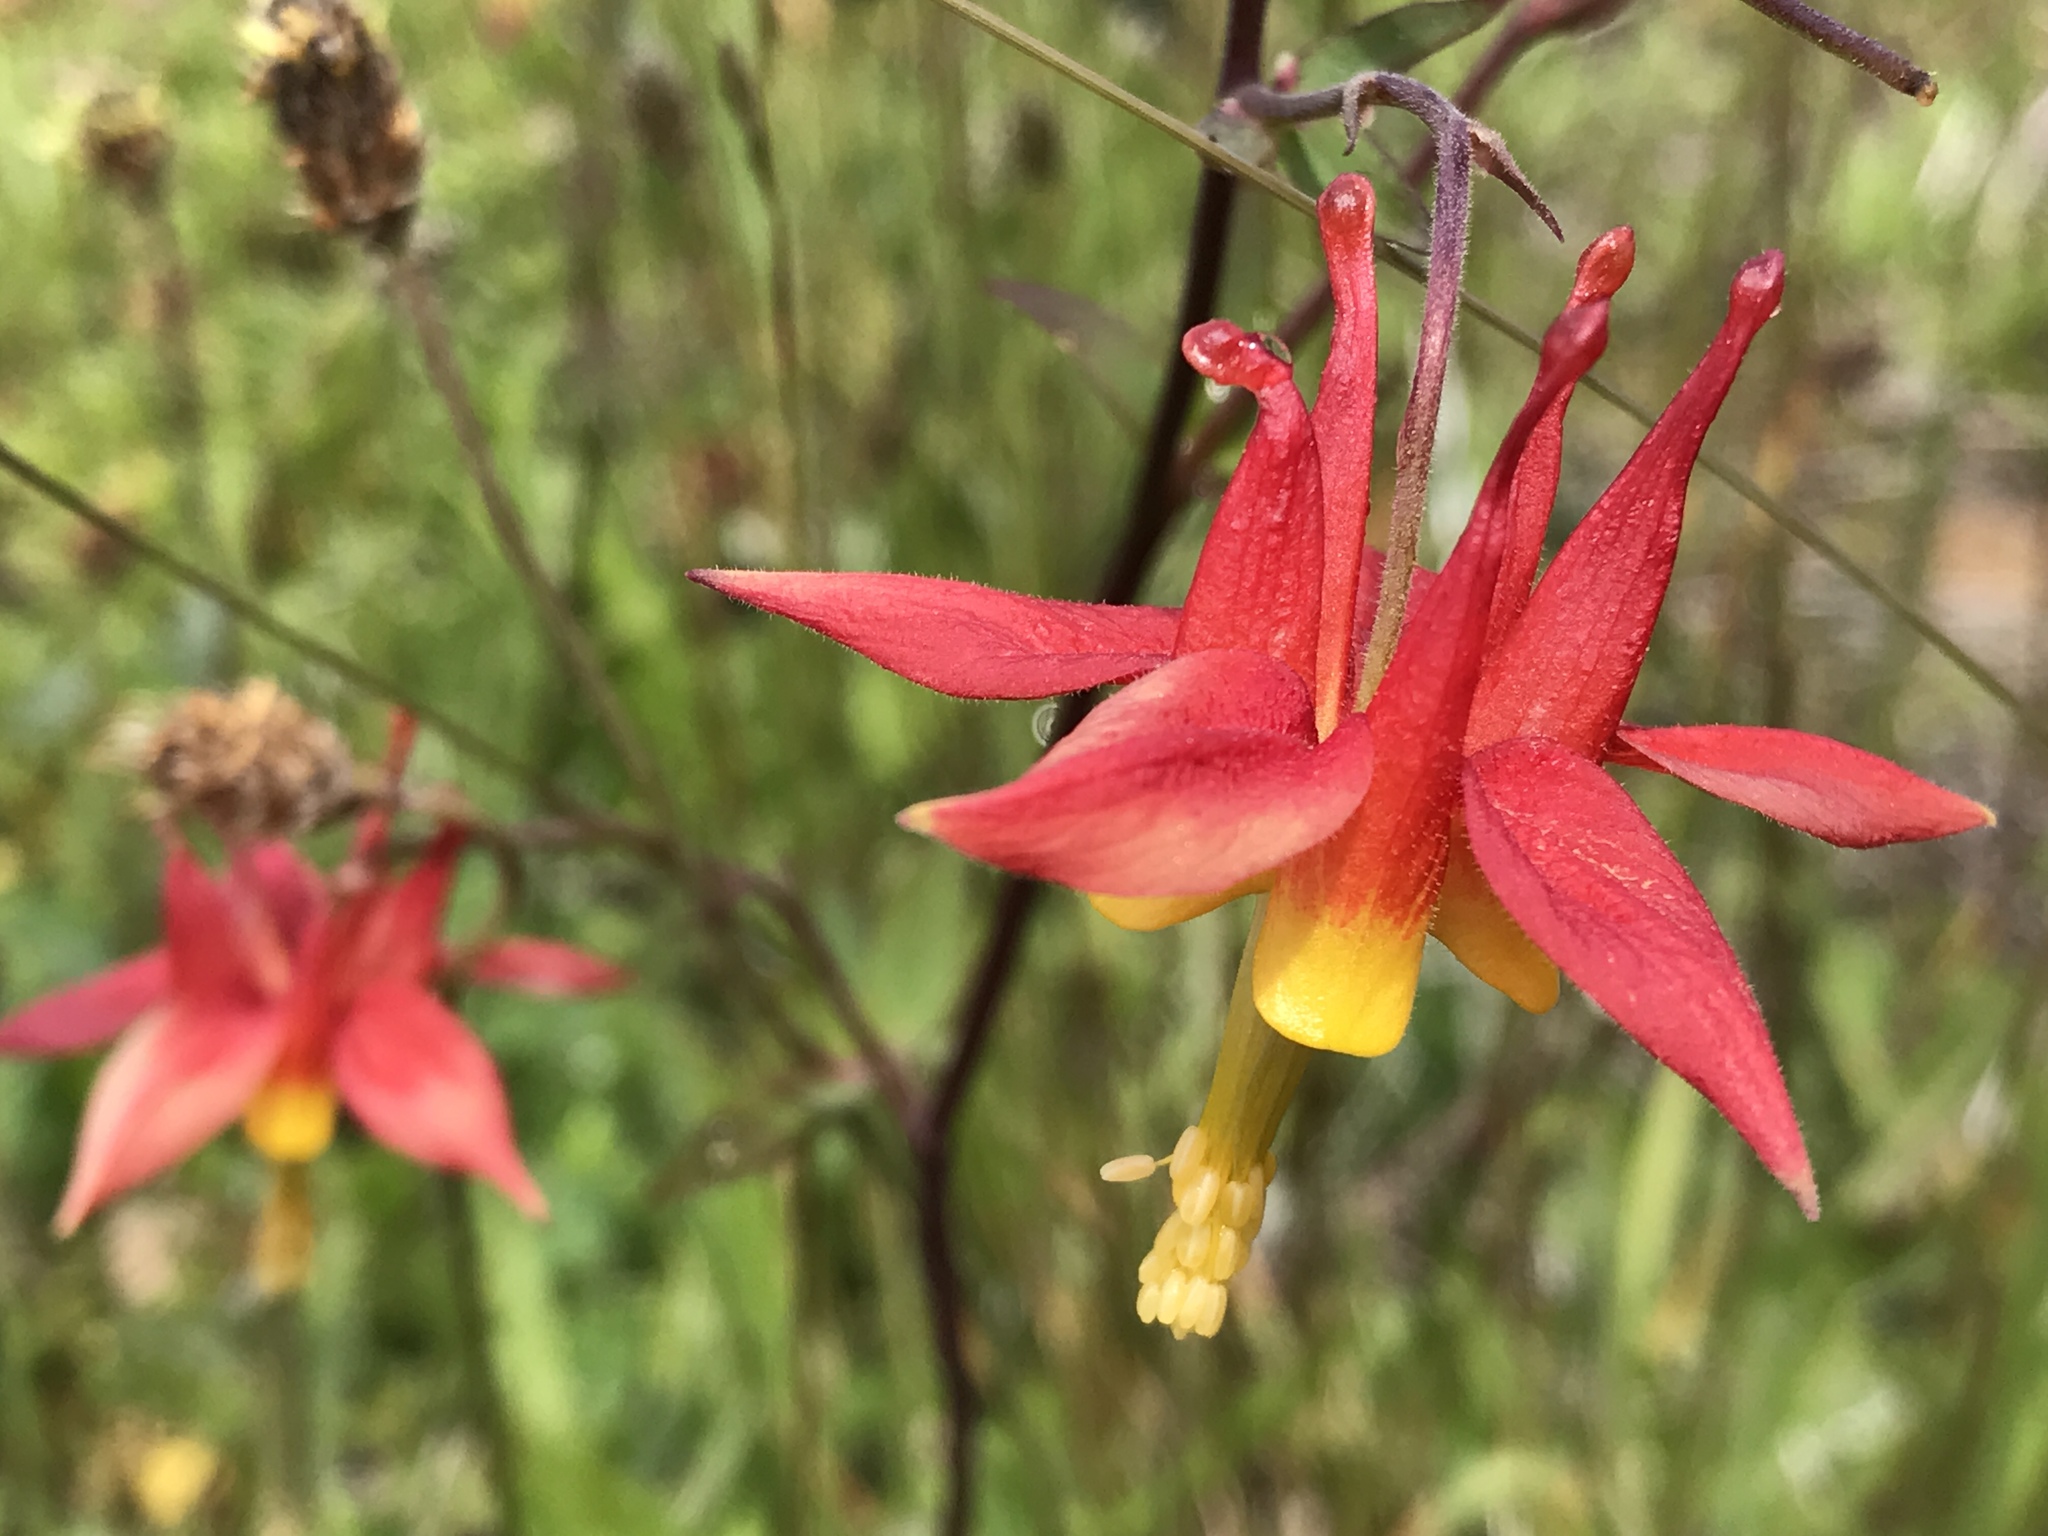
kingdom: Plantae
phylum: Tracheophyta
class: Magnoliopsida
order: Ranunculales
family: Ranunculaceae
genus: Aquilegia
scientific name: Aquilegia formosa
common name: Sitka columbine
